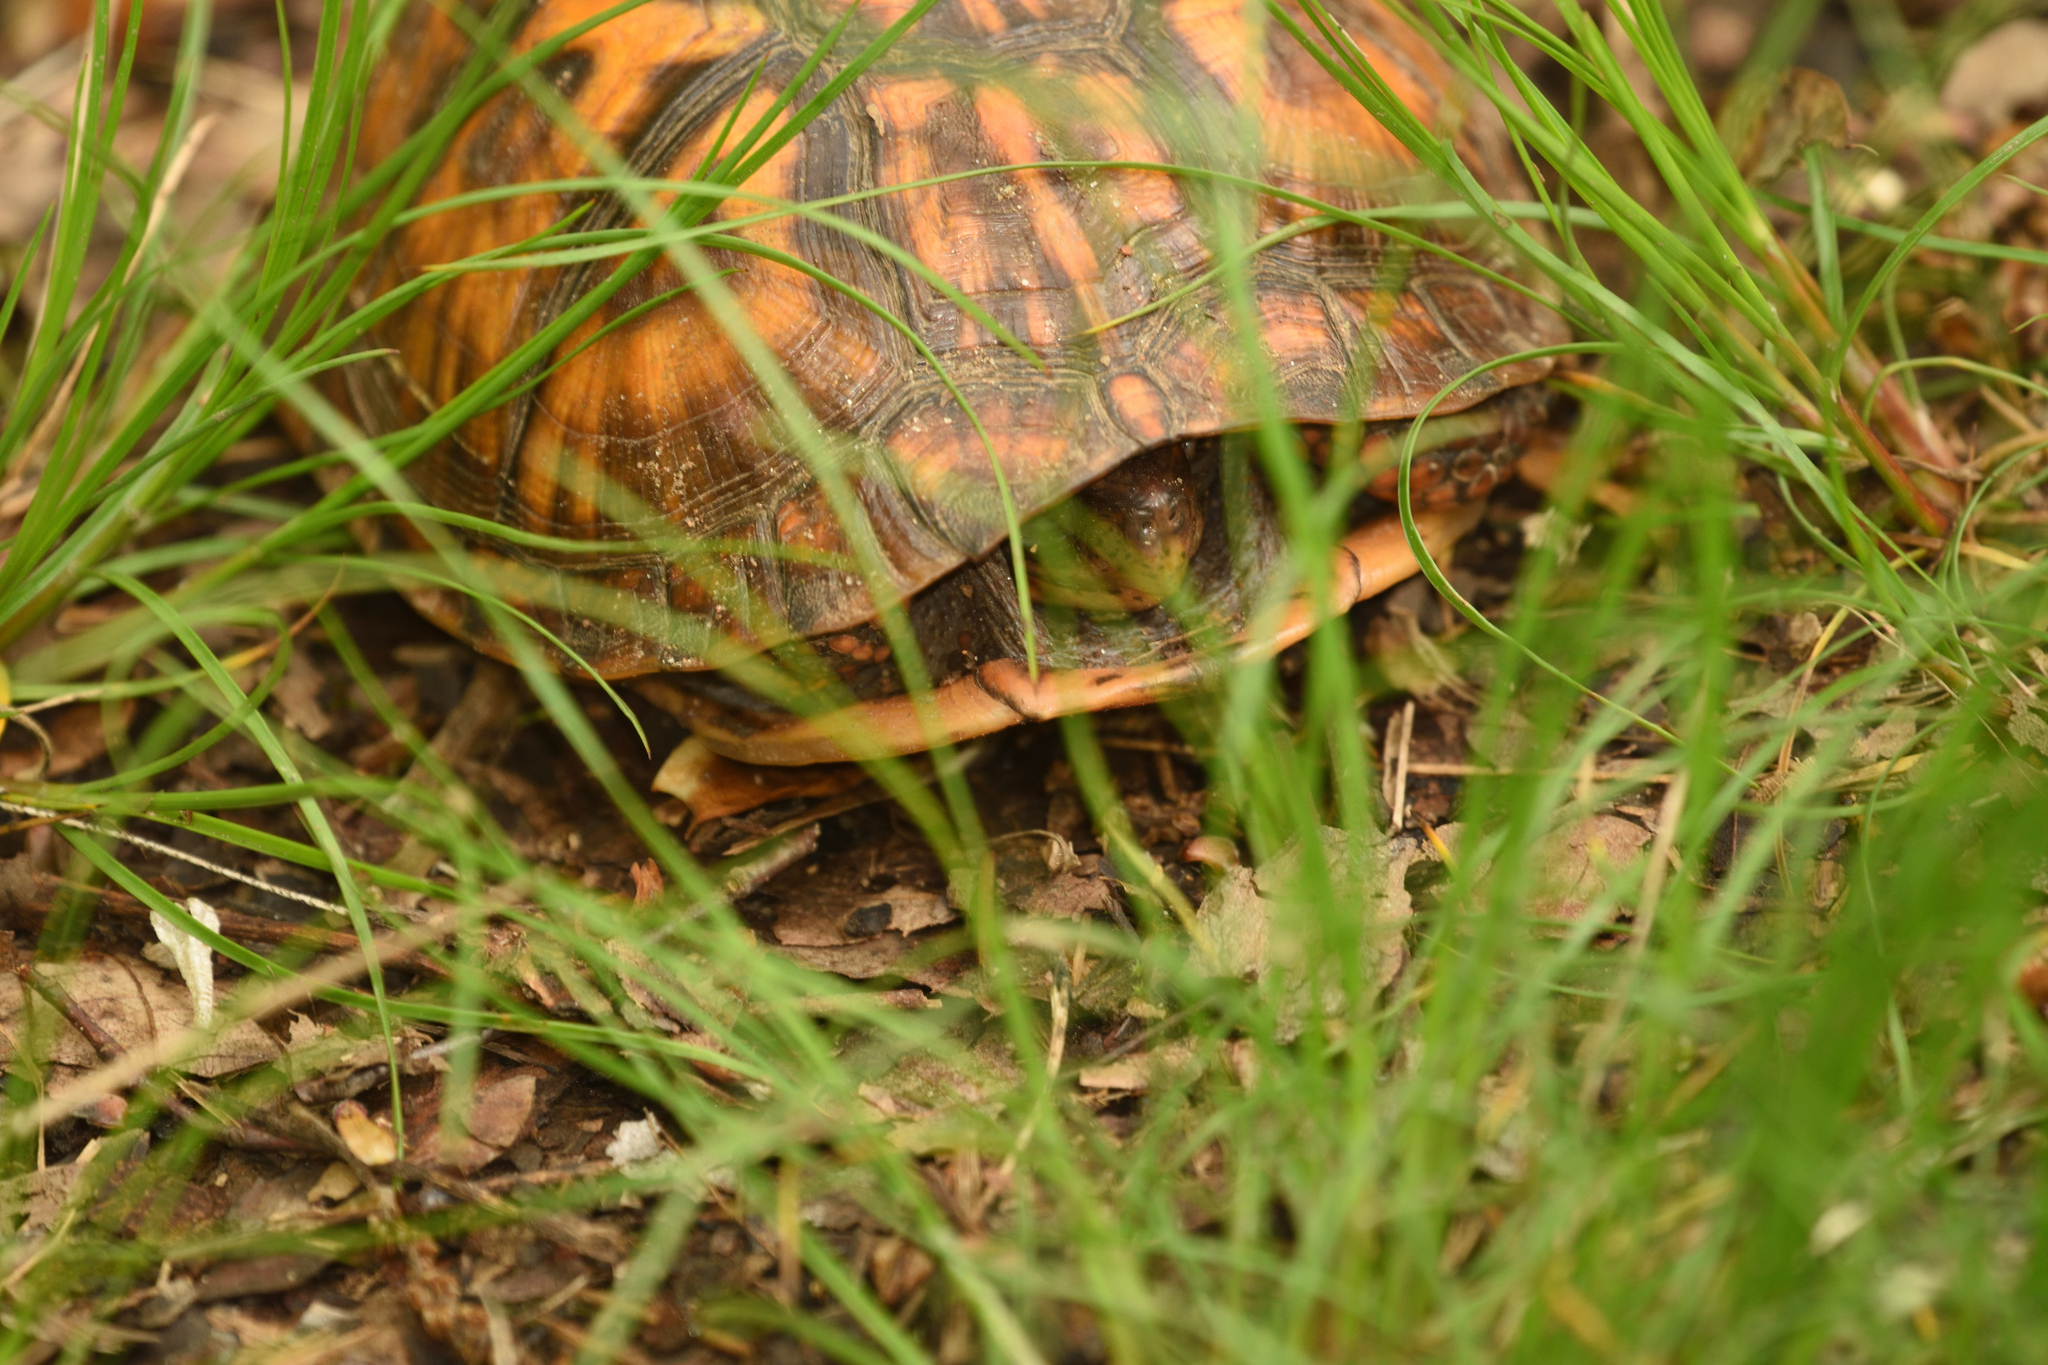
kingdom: Animalia
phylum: Chordata
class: Testudines
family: Emydidae
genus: Terrapene
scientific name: Terrapene carolina
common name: Common box turtle
